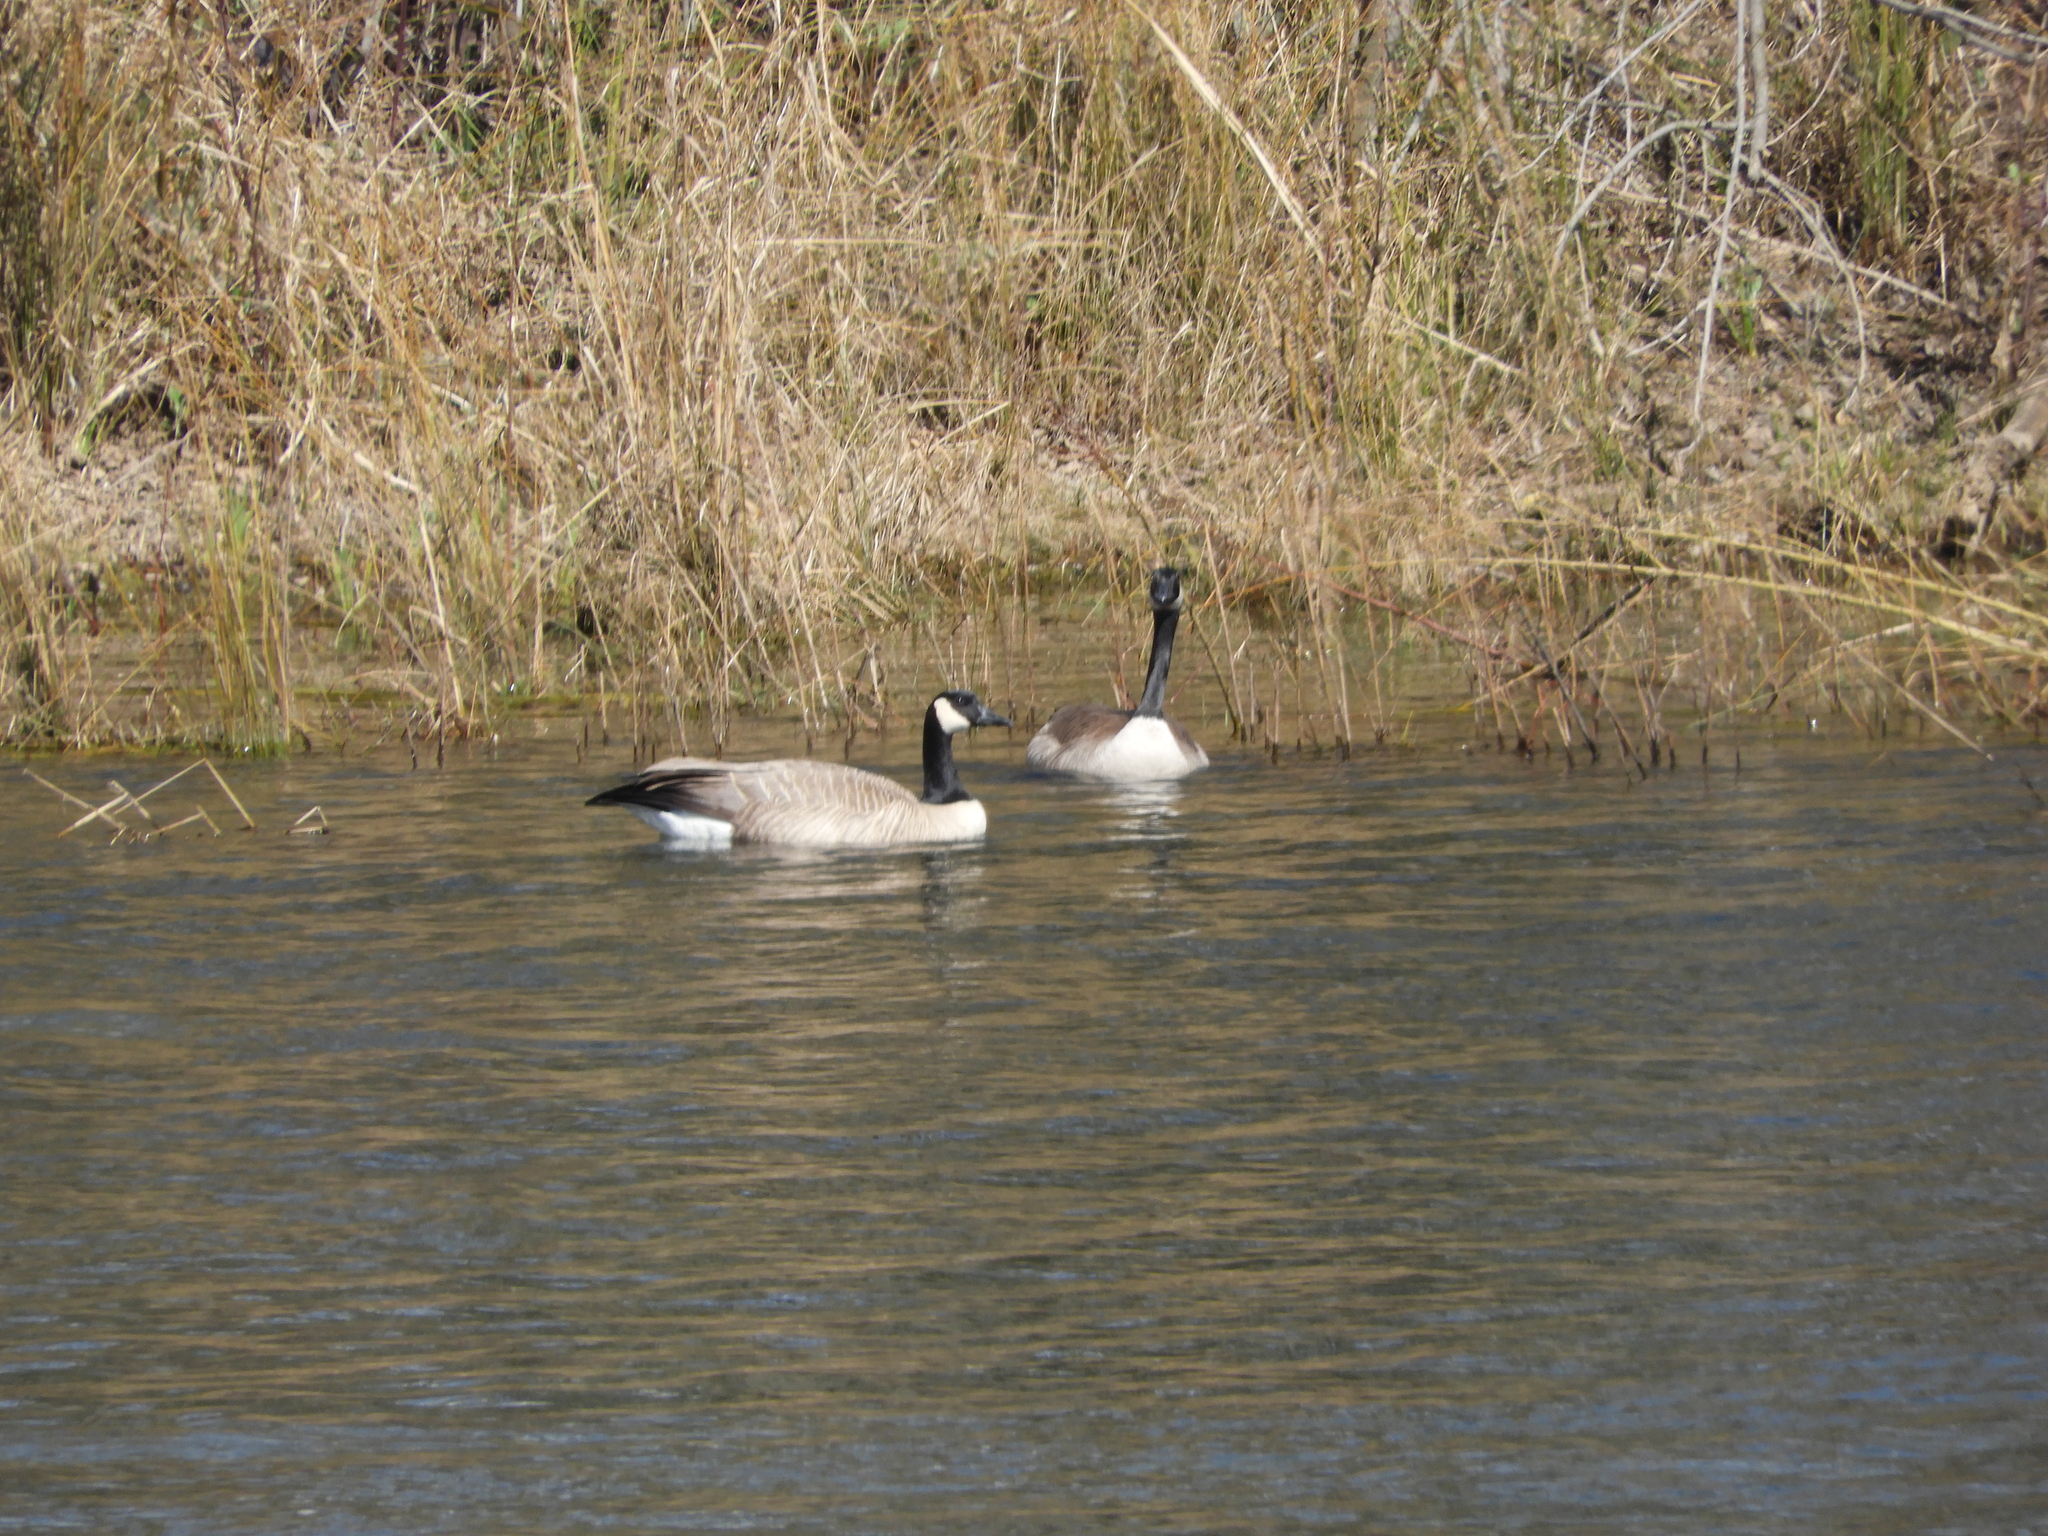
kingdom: Animalia
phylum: Chordata
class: Aves
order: Anseriformes
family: Anatidae
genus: Branta
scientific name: Branta canadensis
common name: Canada goose
